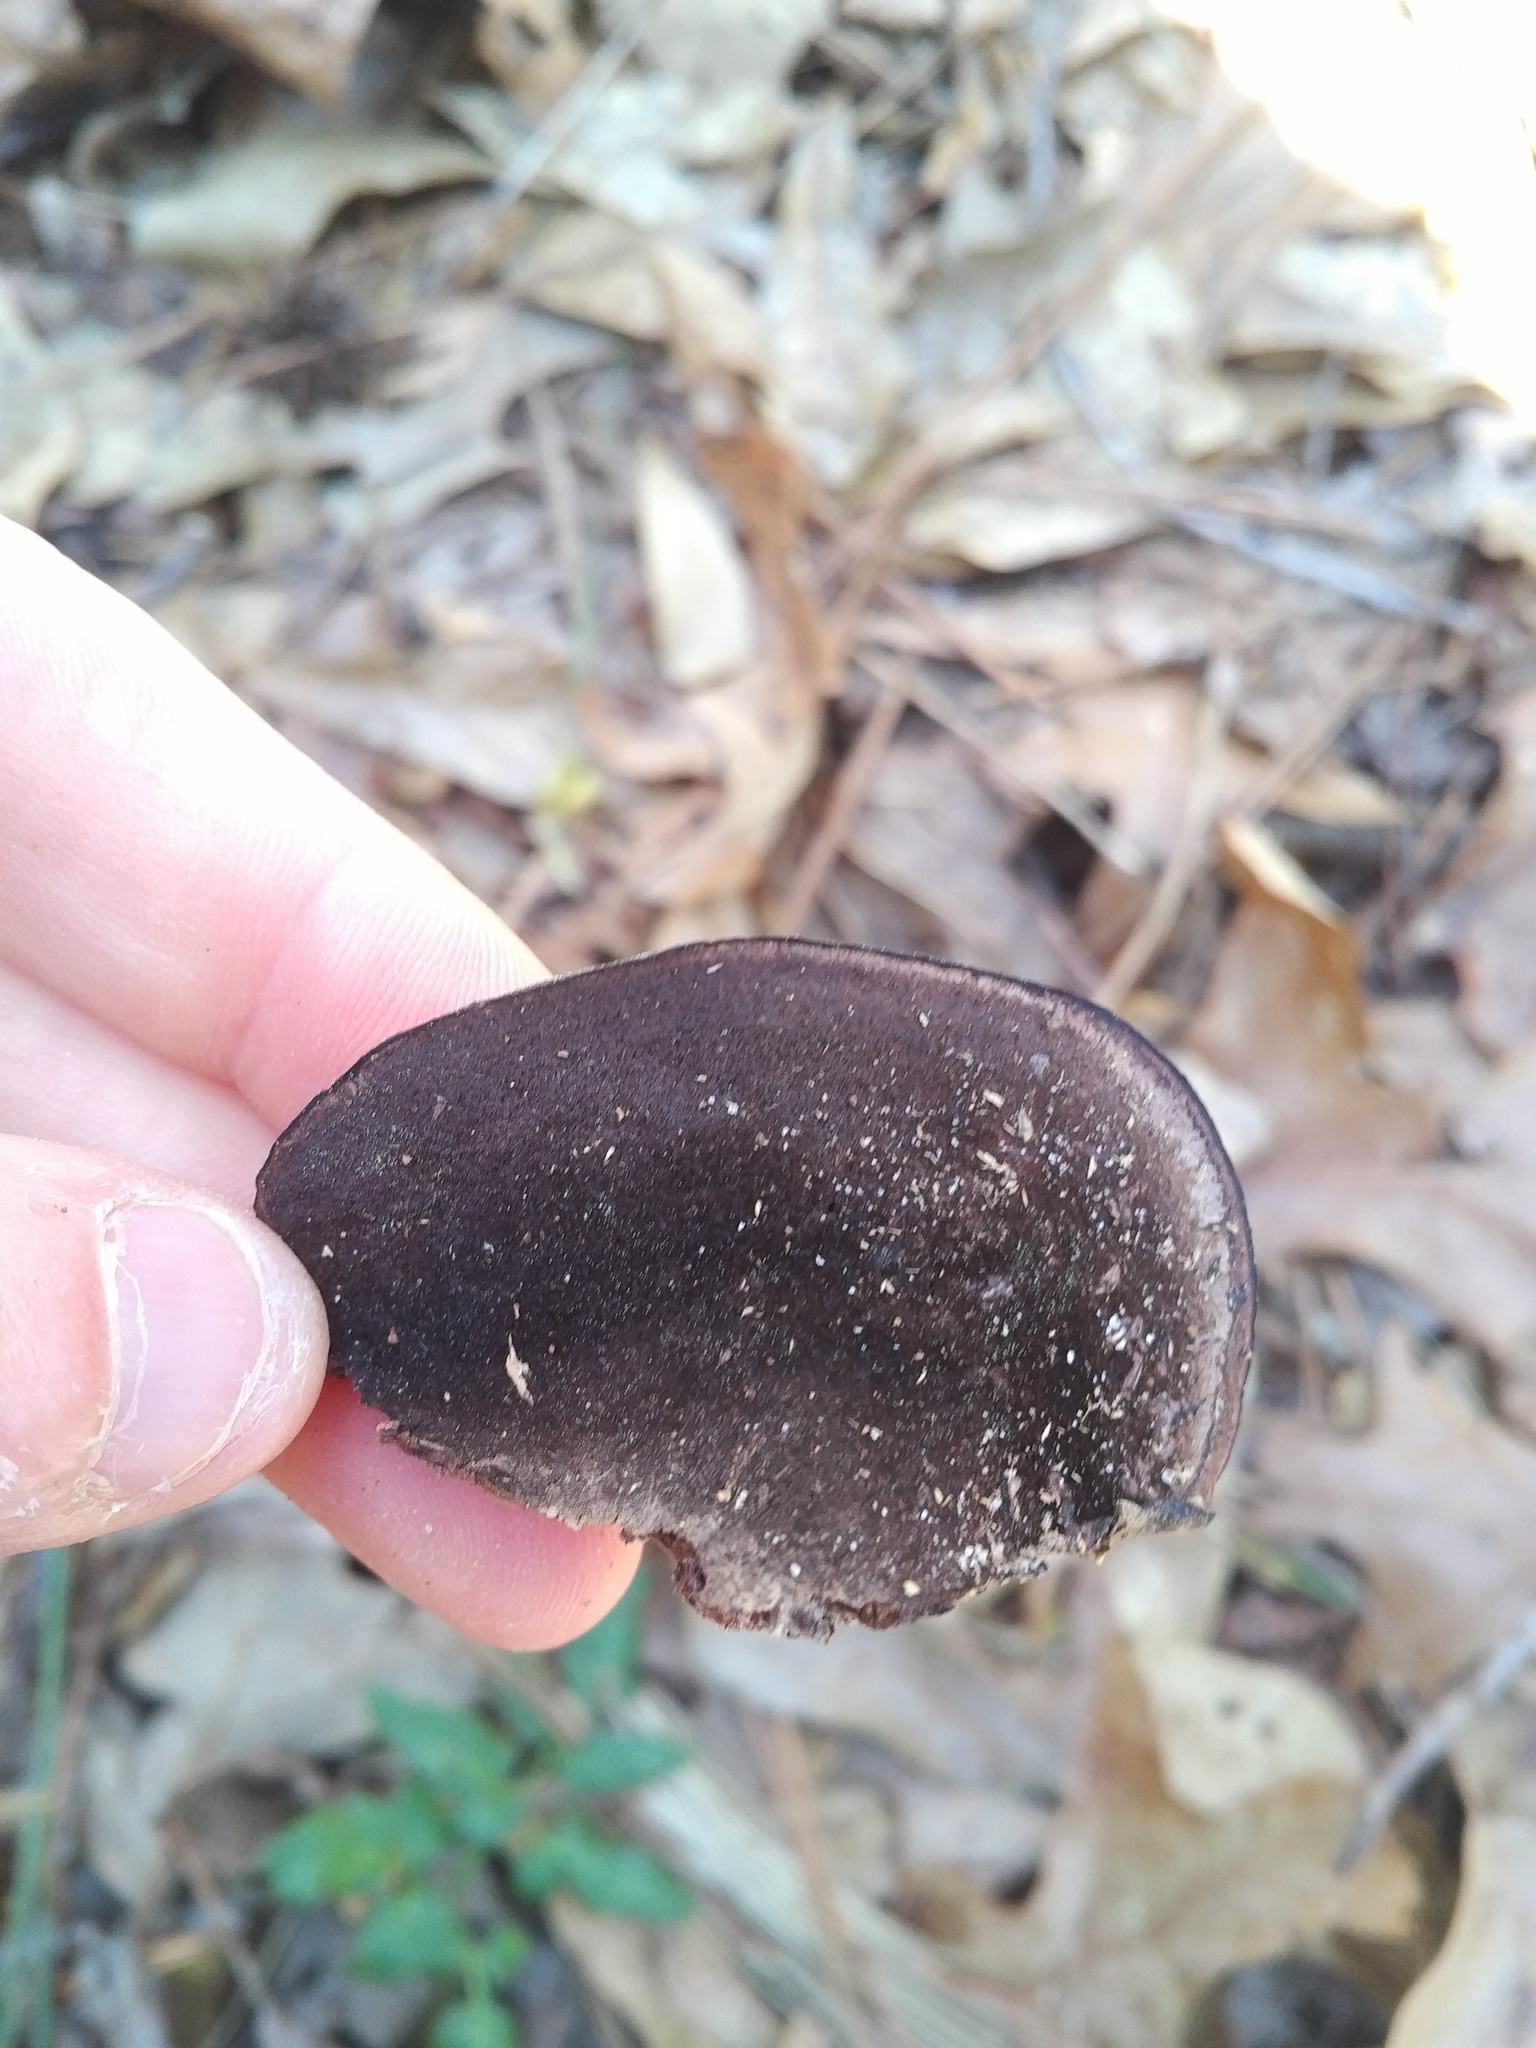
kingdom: Fungi
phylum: Basidiomycota
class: Agaricomycetes
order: Polyporales
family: Steccherinaceae
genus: Nigroporus
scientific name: Nigroporus vinosus
